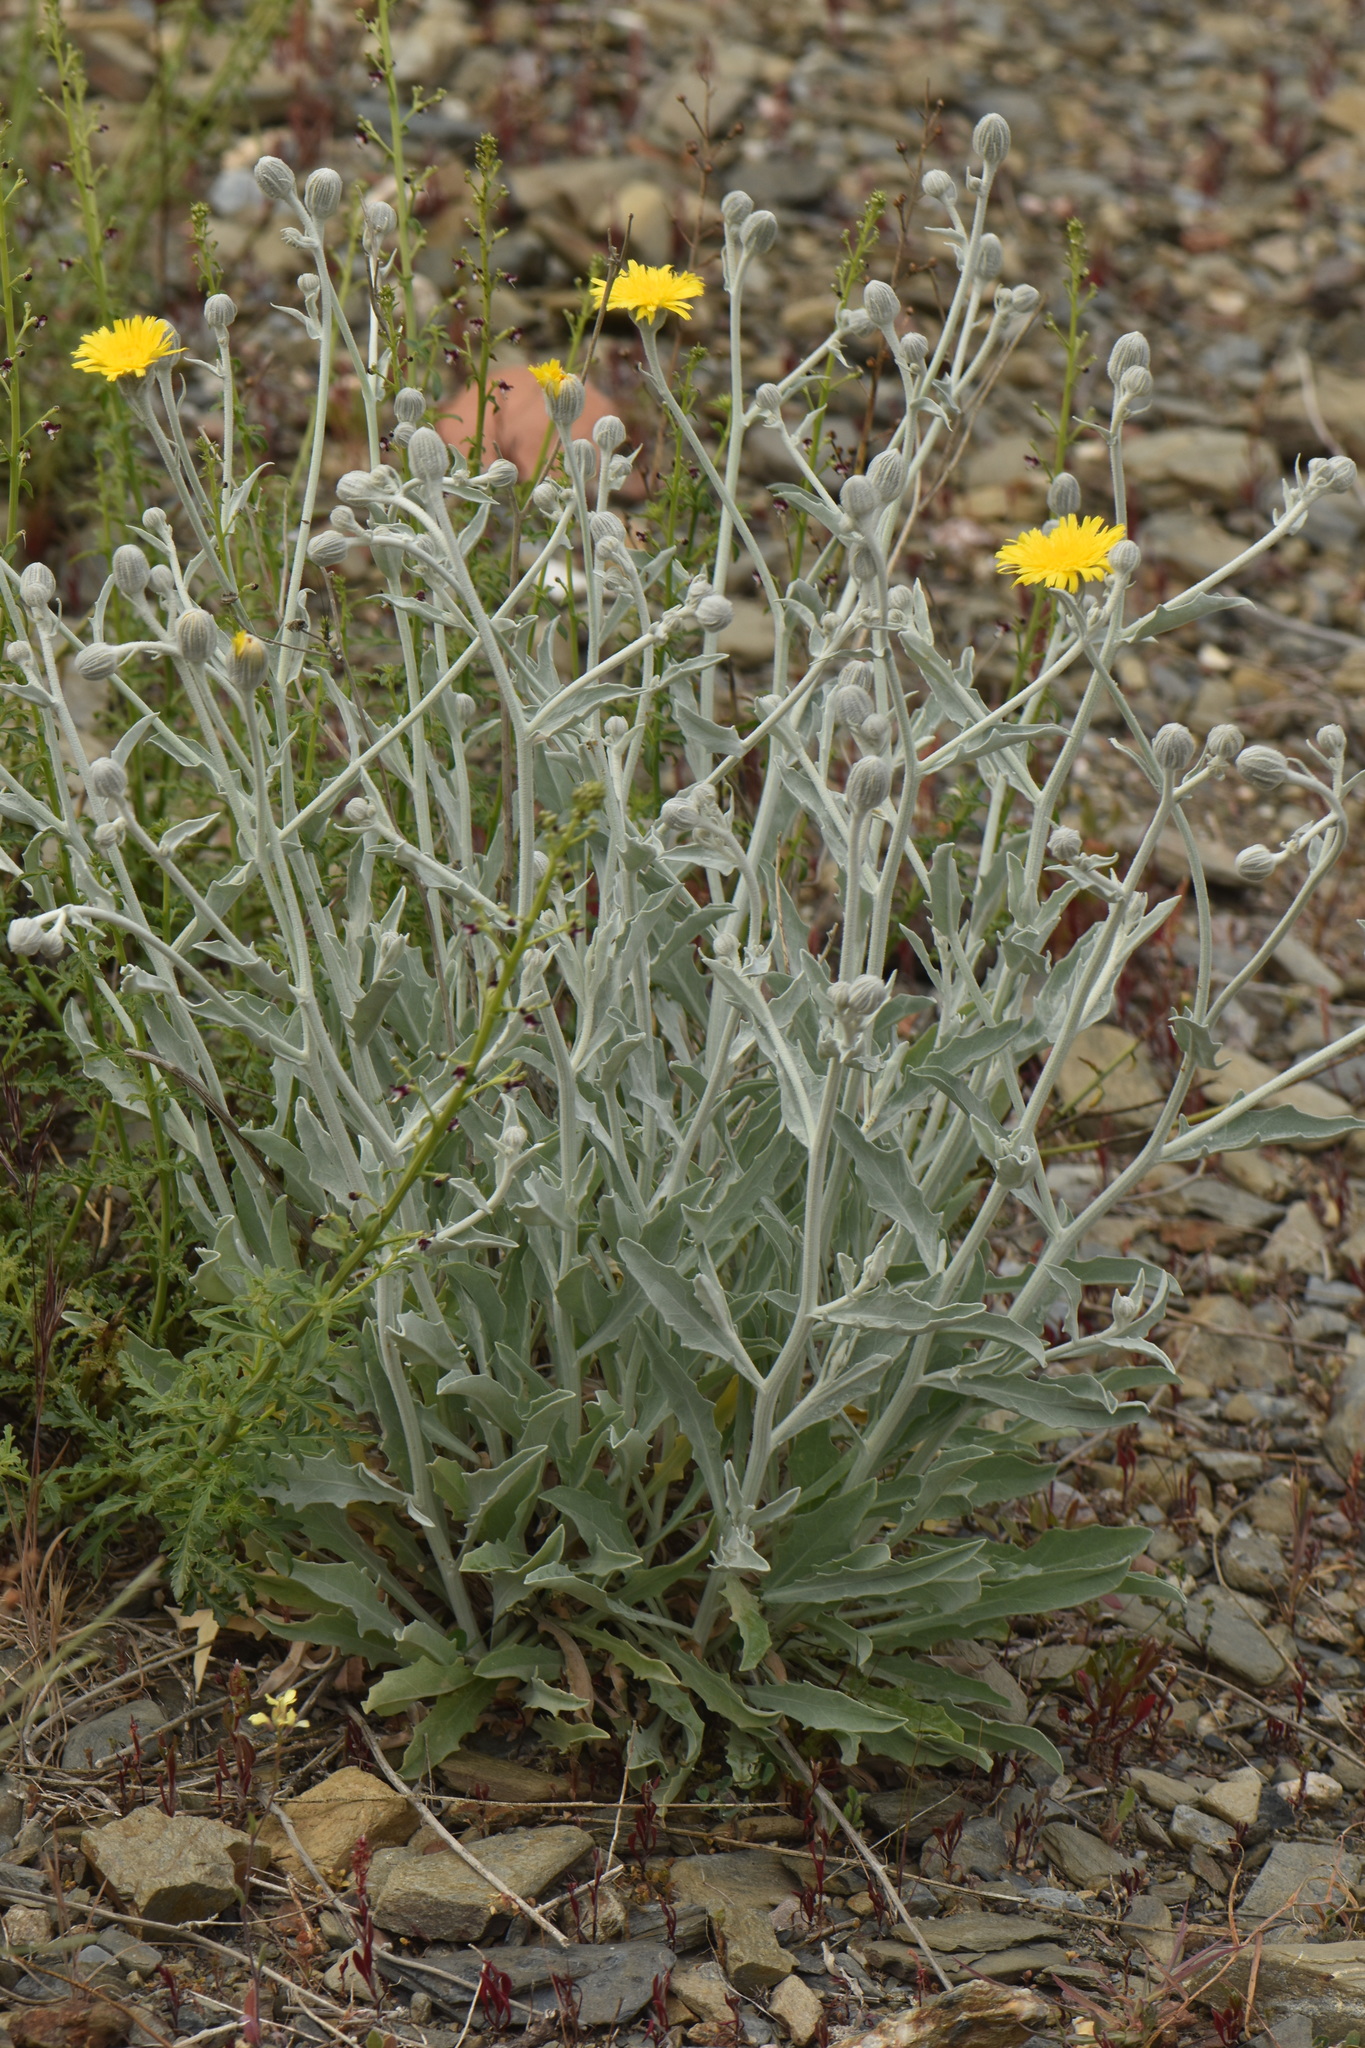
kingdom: Plantae
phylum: Tracheophyta
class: Magnoliopsida
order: Asterales
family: Asteraceae
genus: Andryala
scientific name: Andryala ragusina
